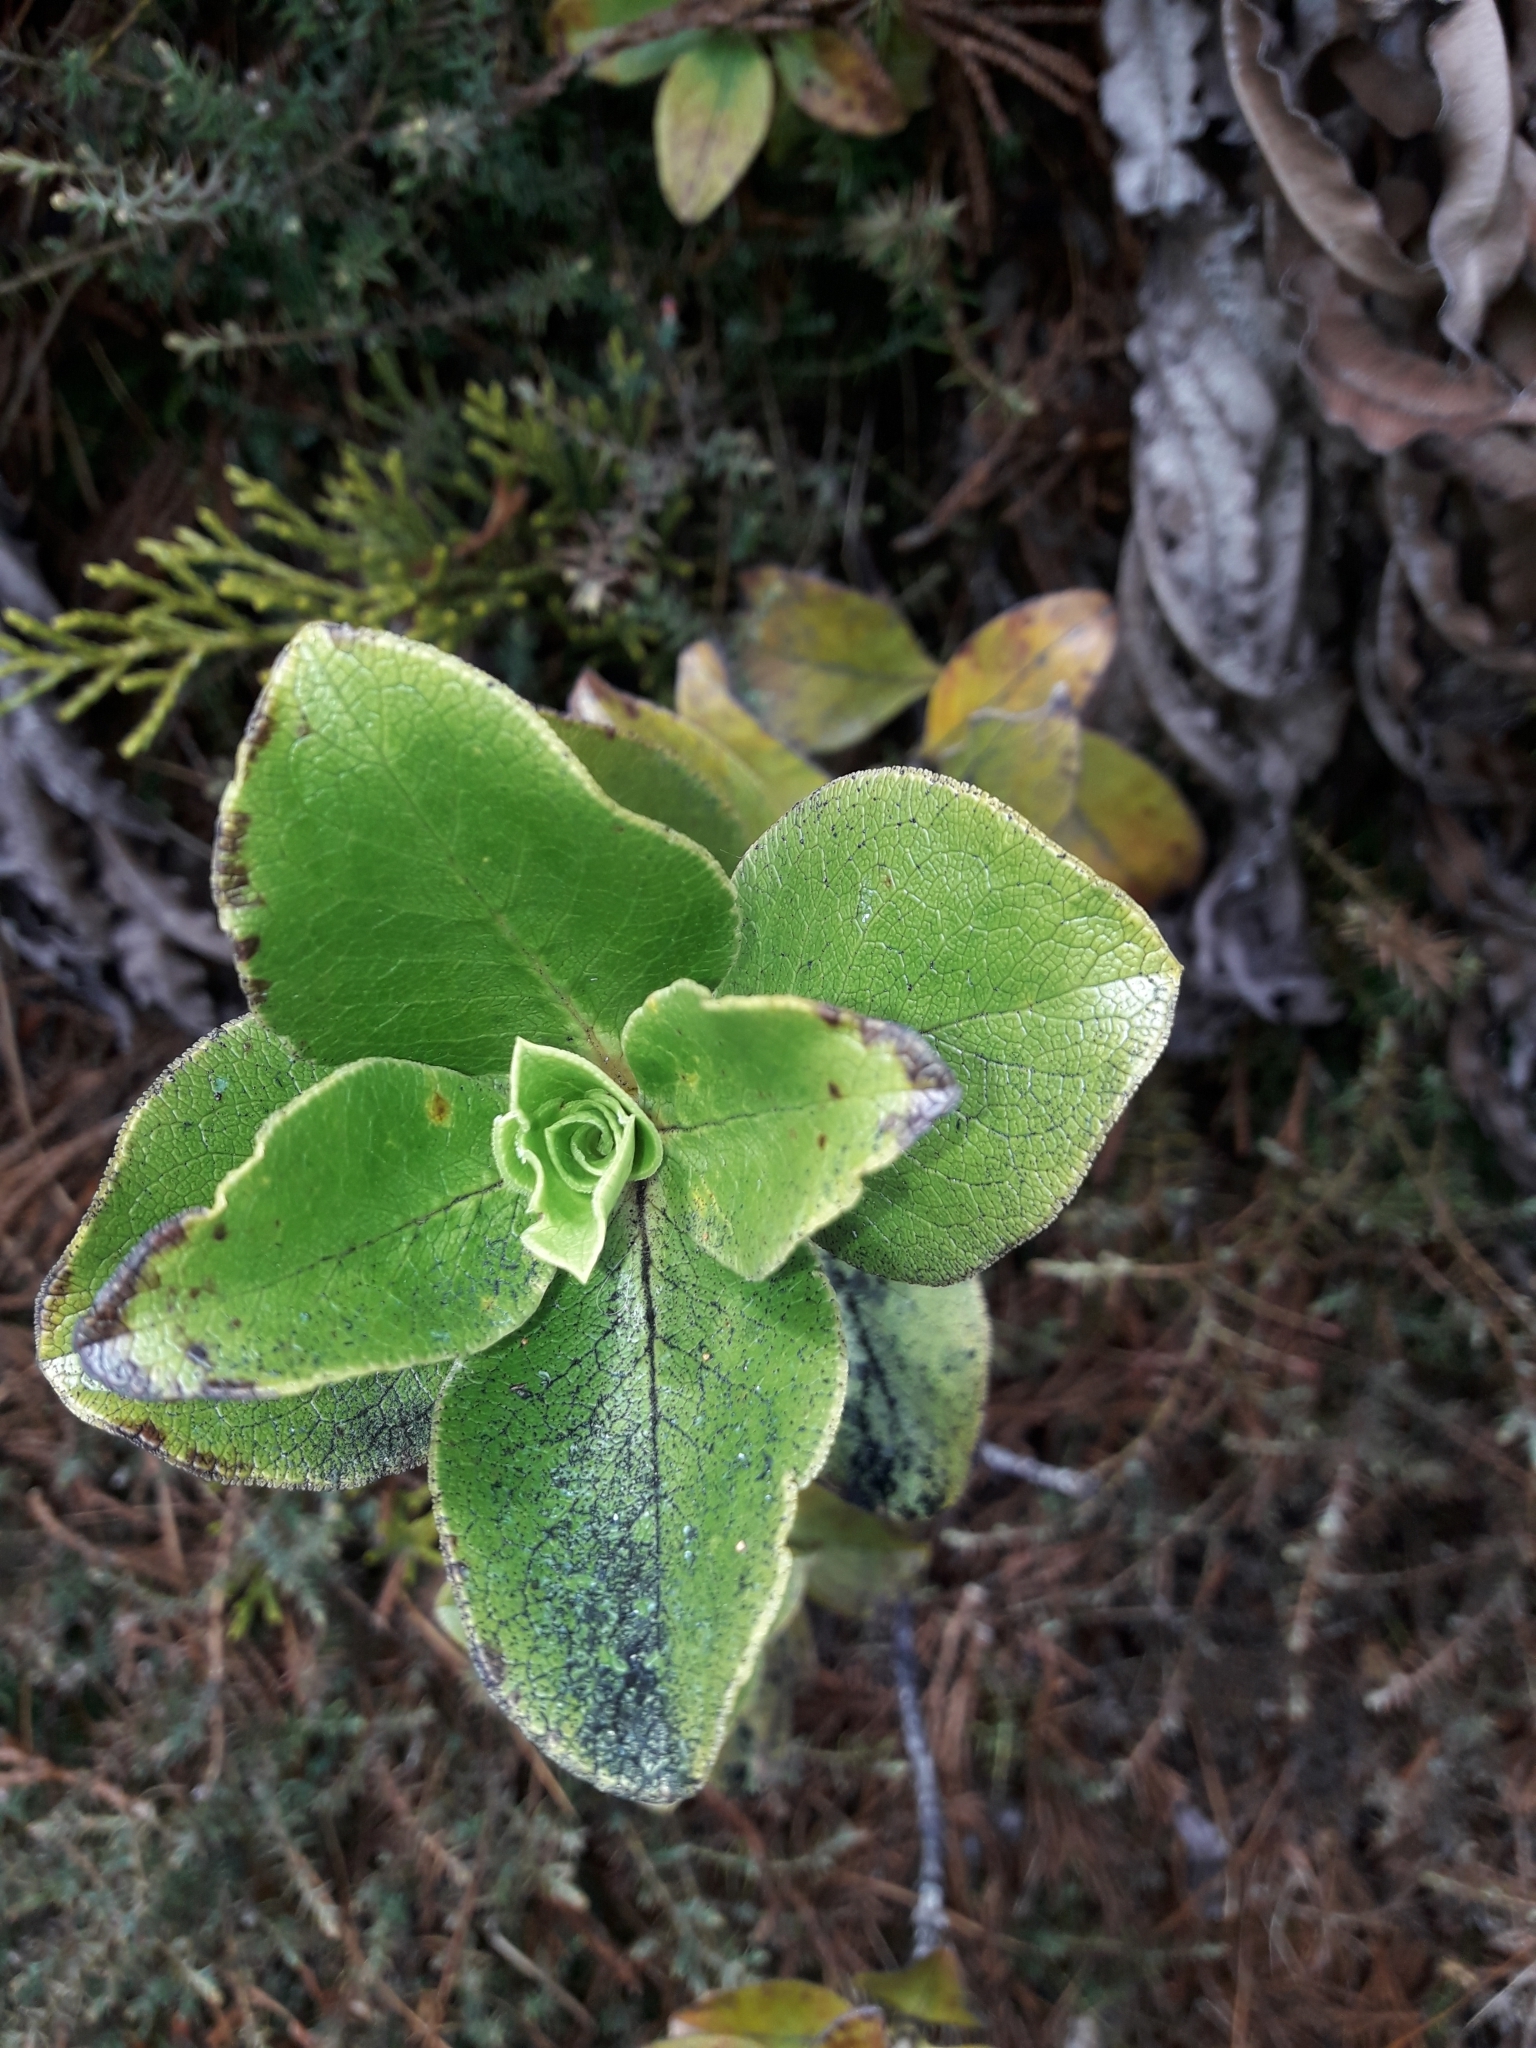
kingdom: Plantae
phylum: Tracheophyta
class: Magnoliopsida
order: Gentianales
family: Rubiaceae
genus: Coprosma
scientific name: Coprosma serrulata
